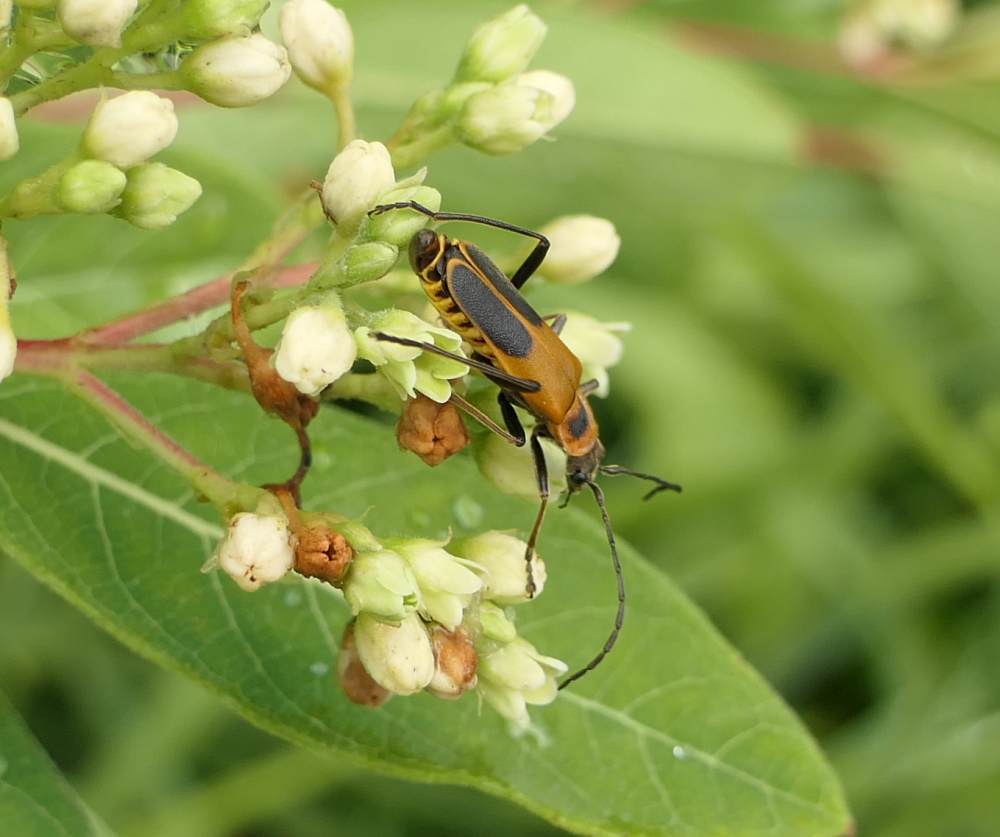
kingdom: Animalia
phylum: Arthropoda
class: Insecta
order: Coleoptera
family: Cantharidae
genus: Chauliognathus
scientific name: Chauliognathus pensylvanicus
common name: Goldenrod soldier beetle
